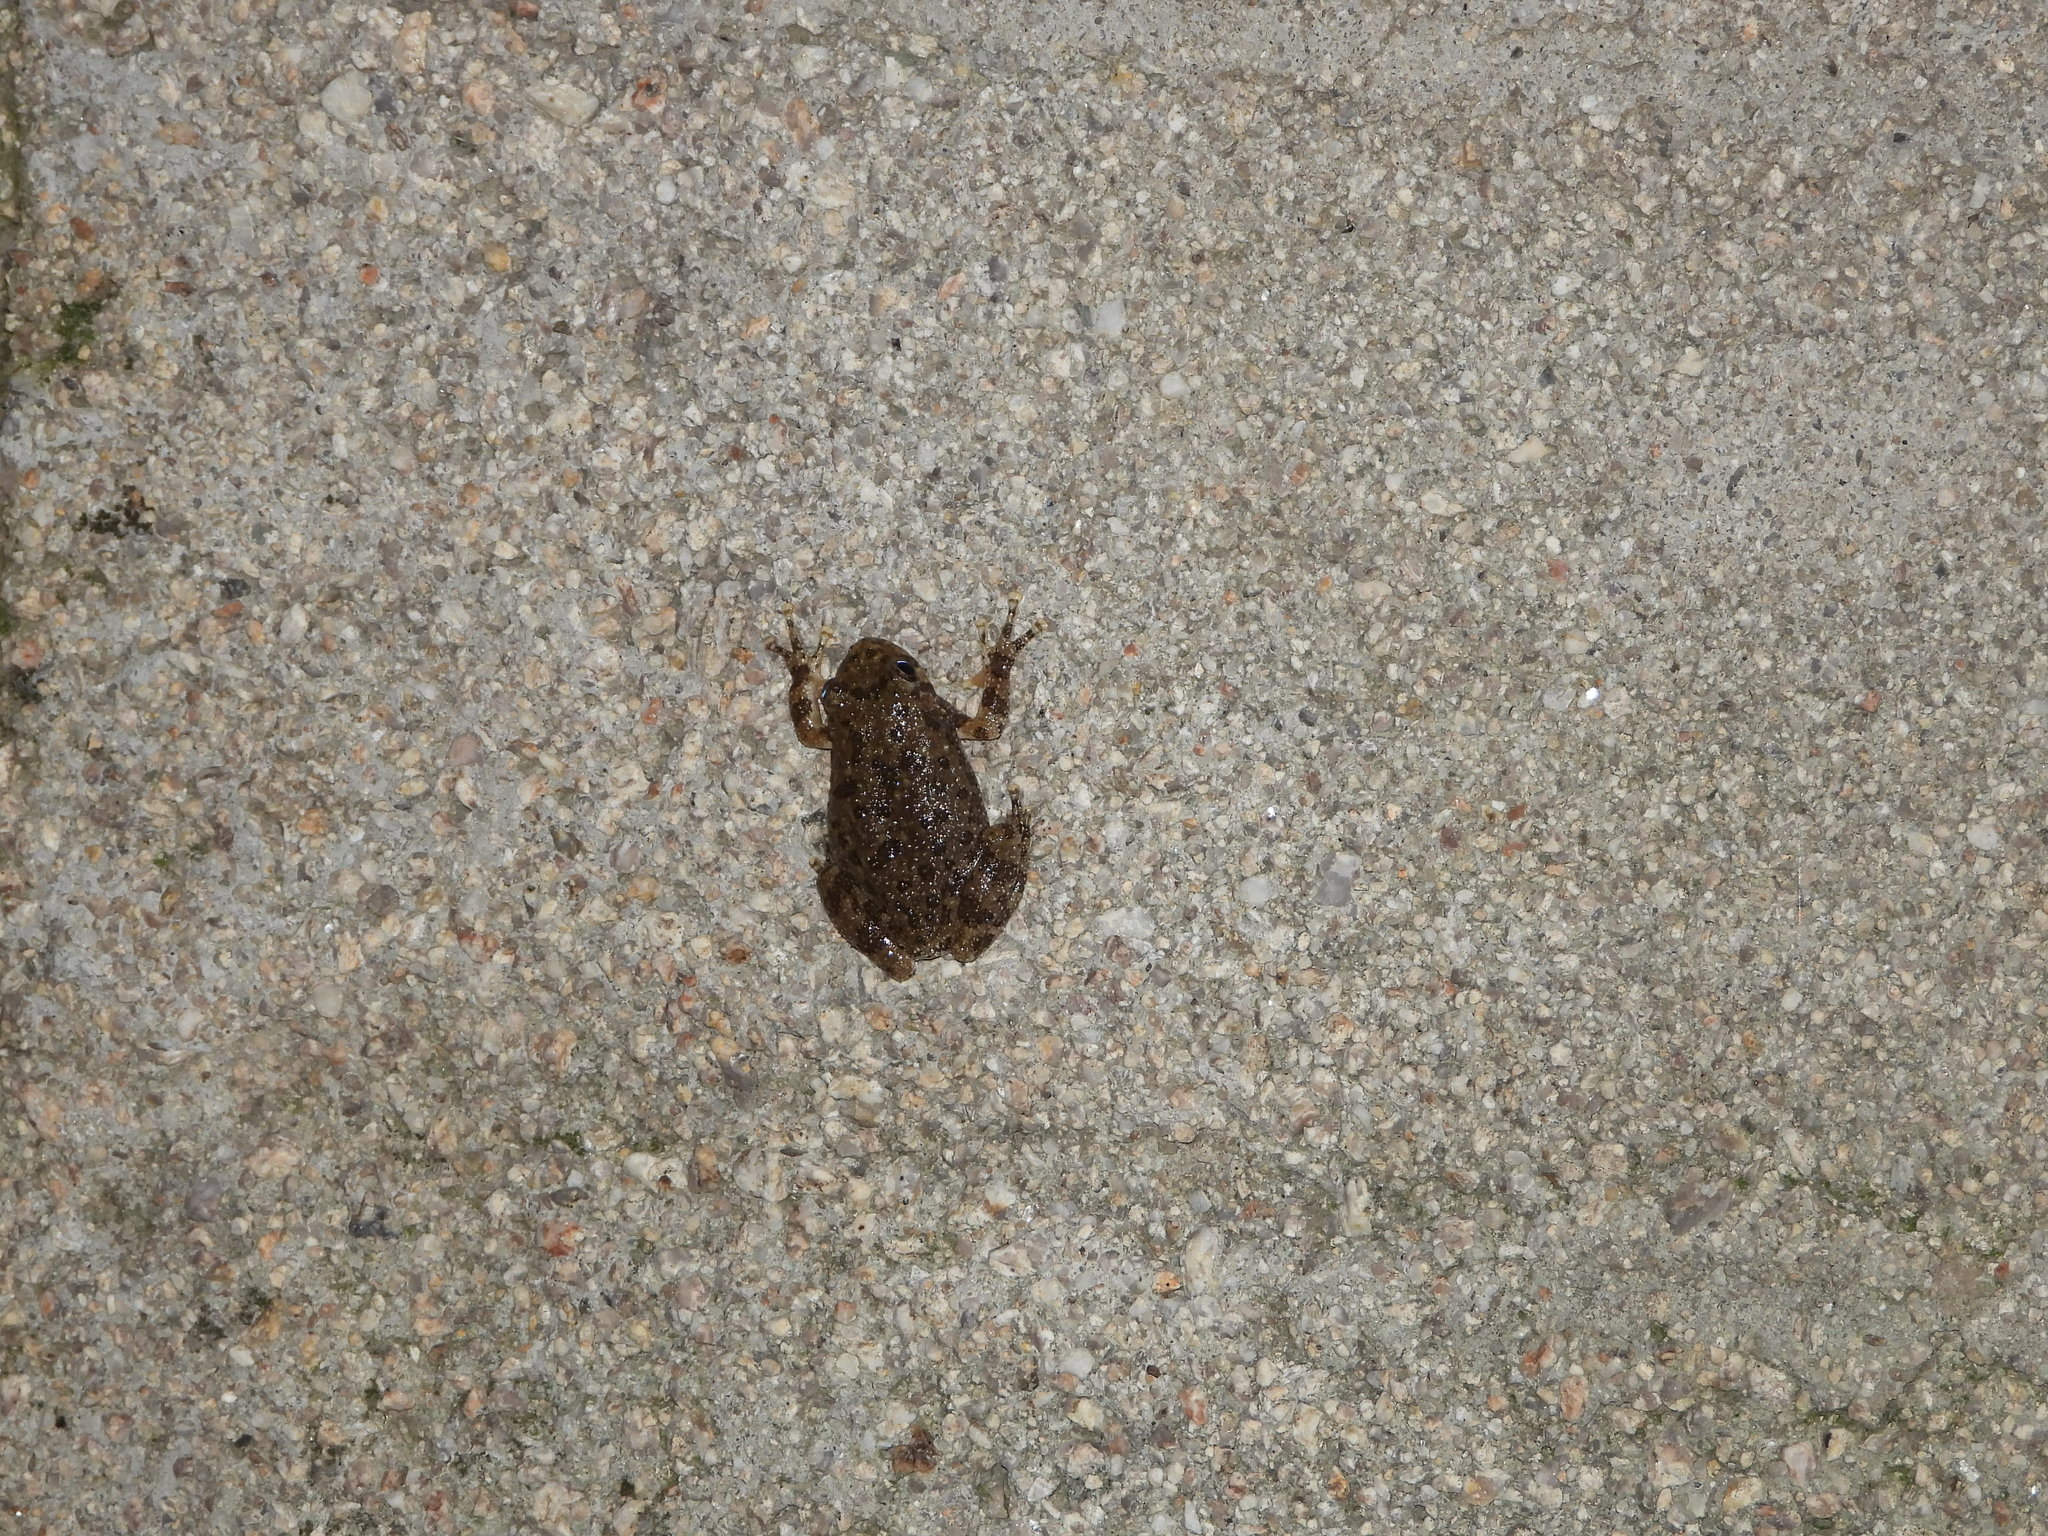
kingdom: Animalia
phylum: Chordata
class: Amphibia
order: Anura
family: Hylidae
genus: Dryophytes
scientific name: Dryophytes arenicolor
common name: Canyon treefrog
